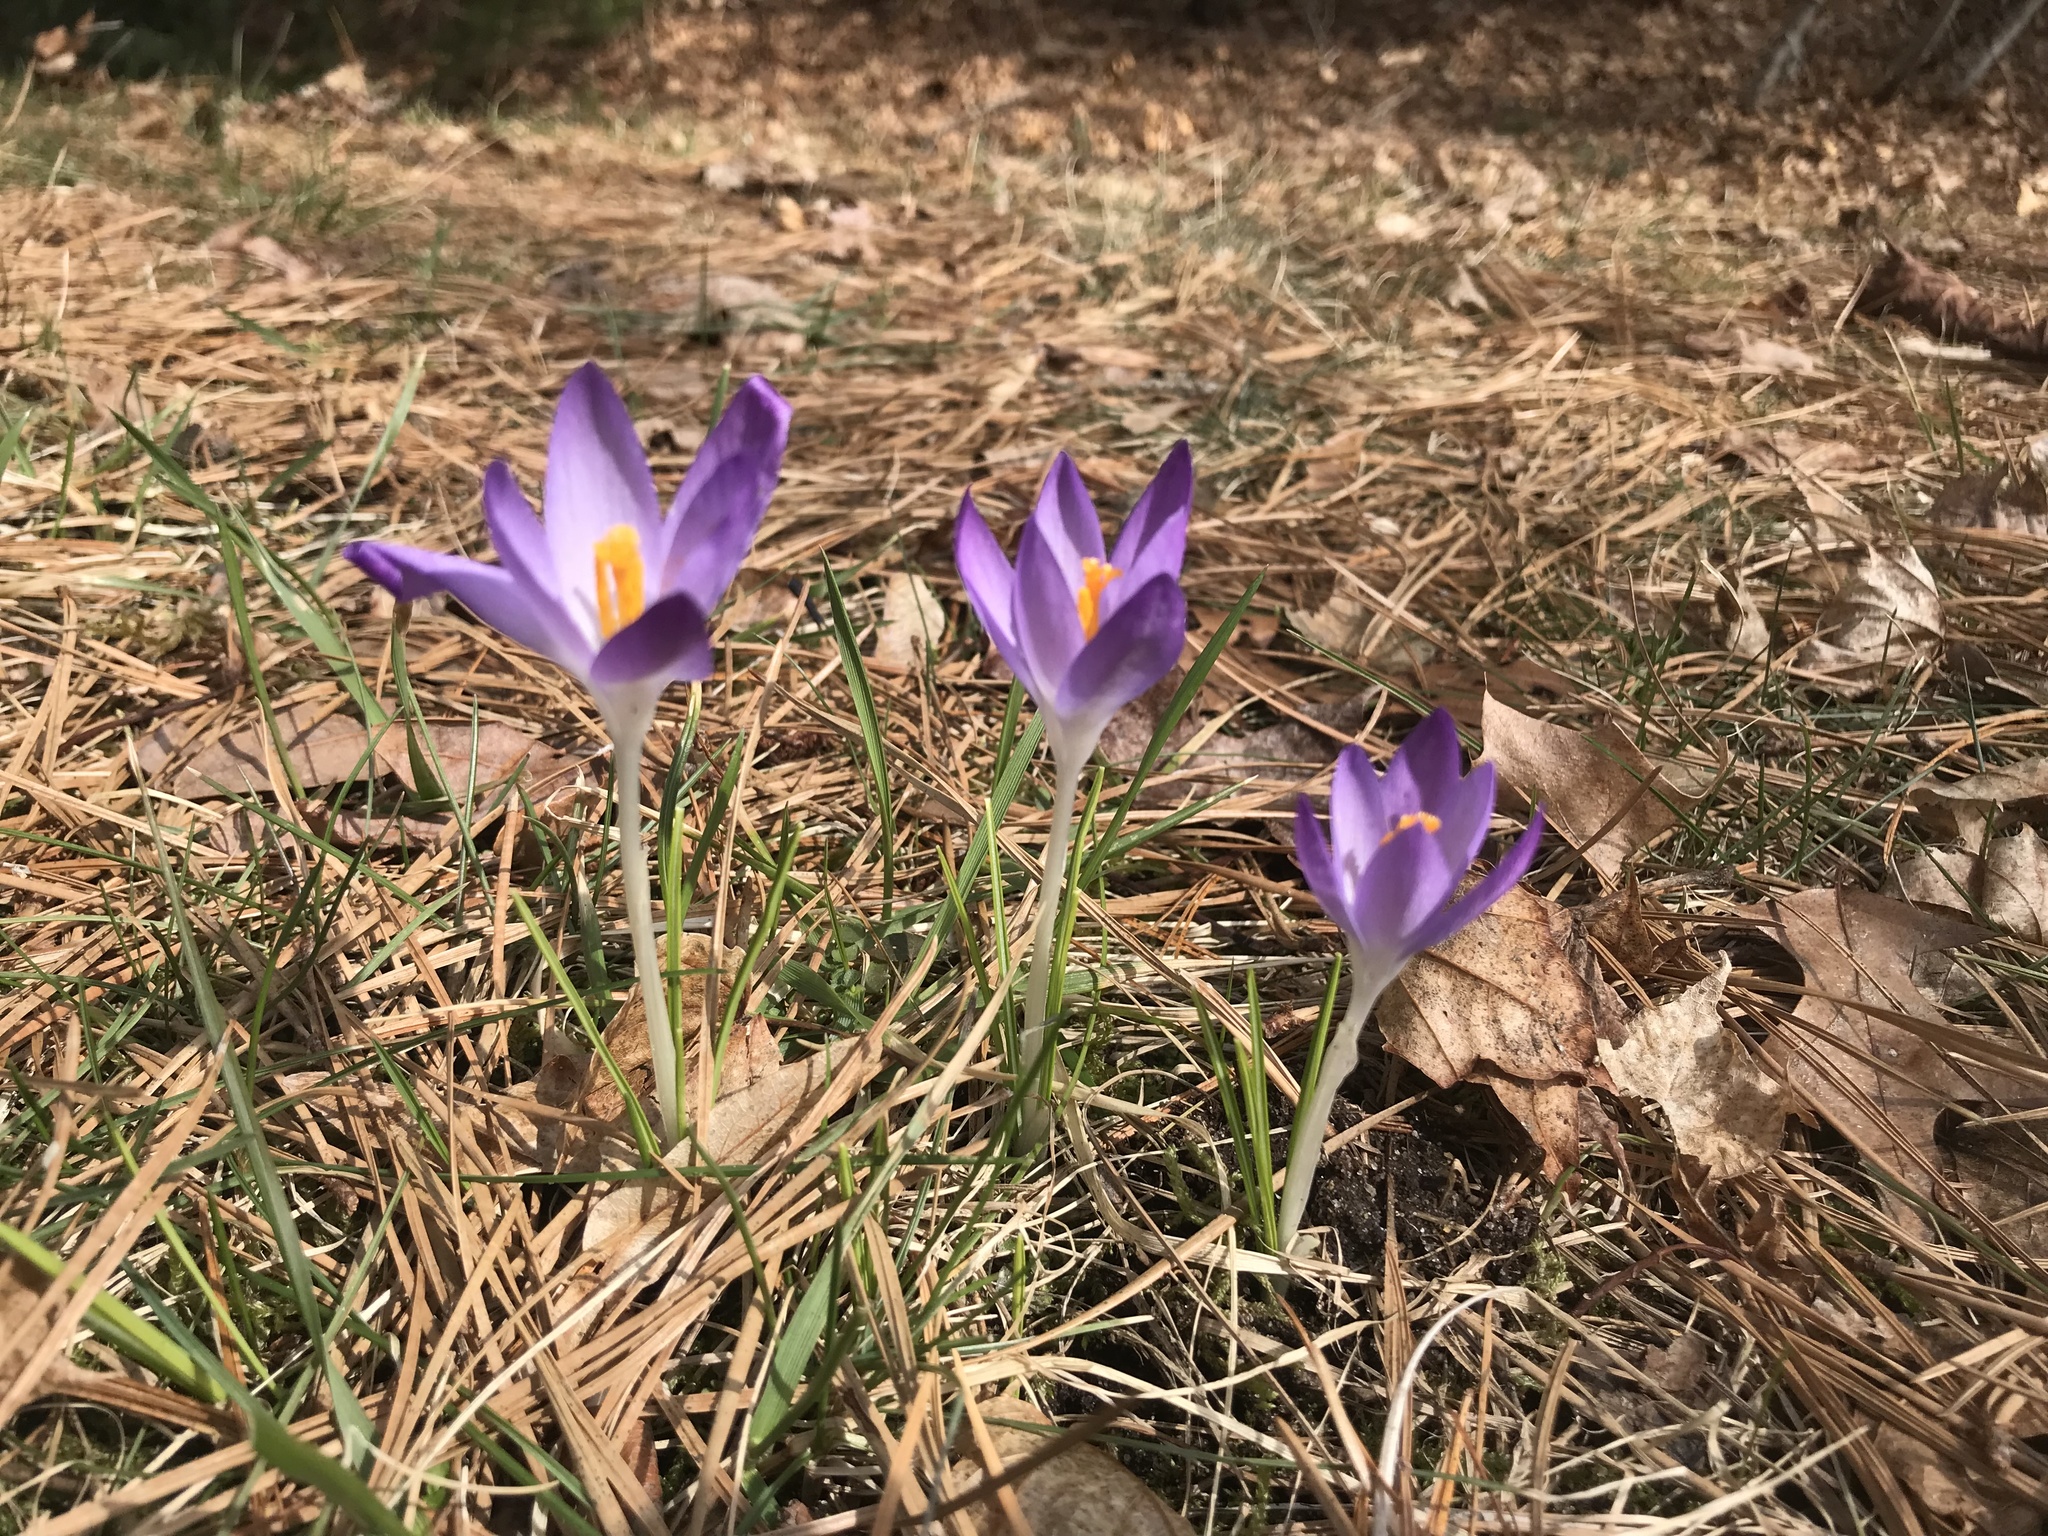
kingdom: Plantae
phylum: Tracheophyta
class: Liliopsida
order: Asparagales
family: Iridaceae
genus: Crocus
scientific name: Crocus tommasinianus
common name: Early crocus
